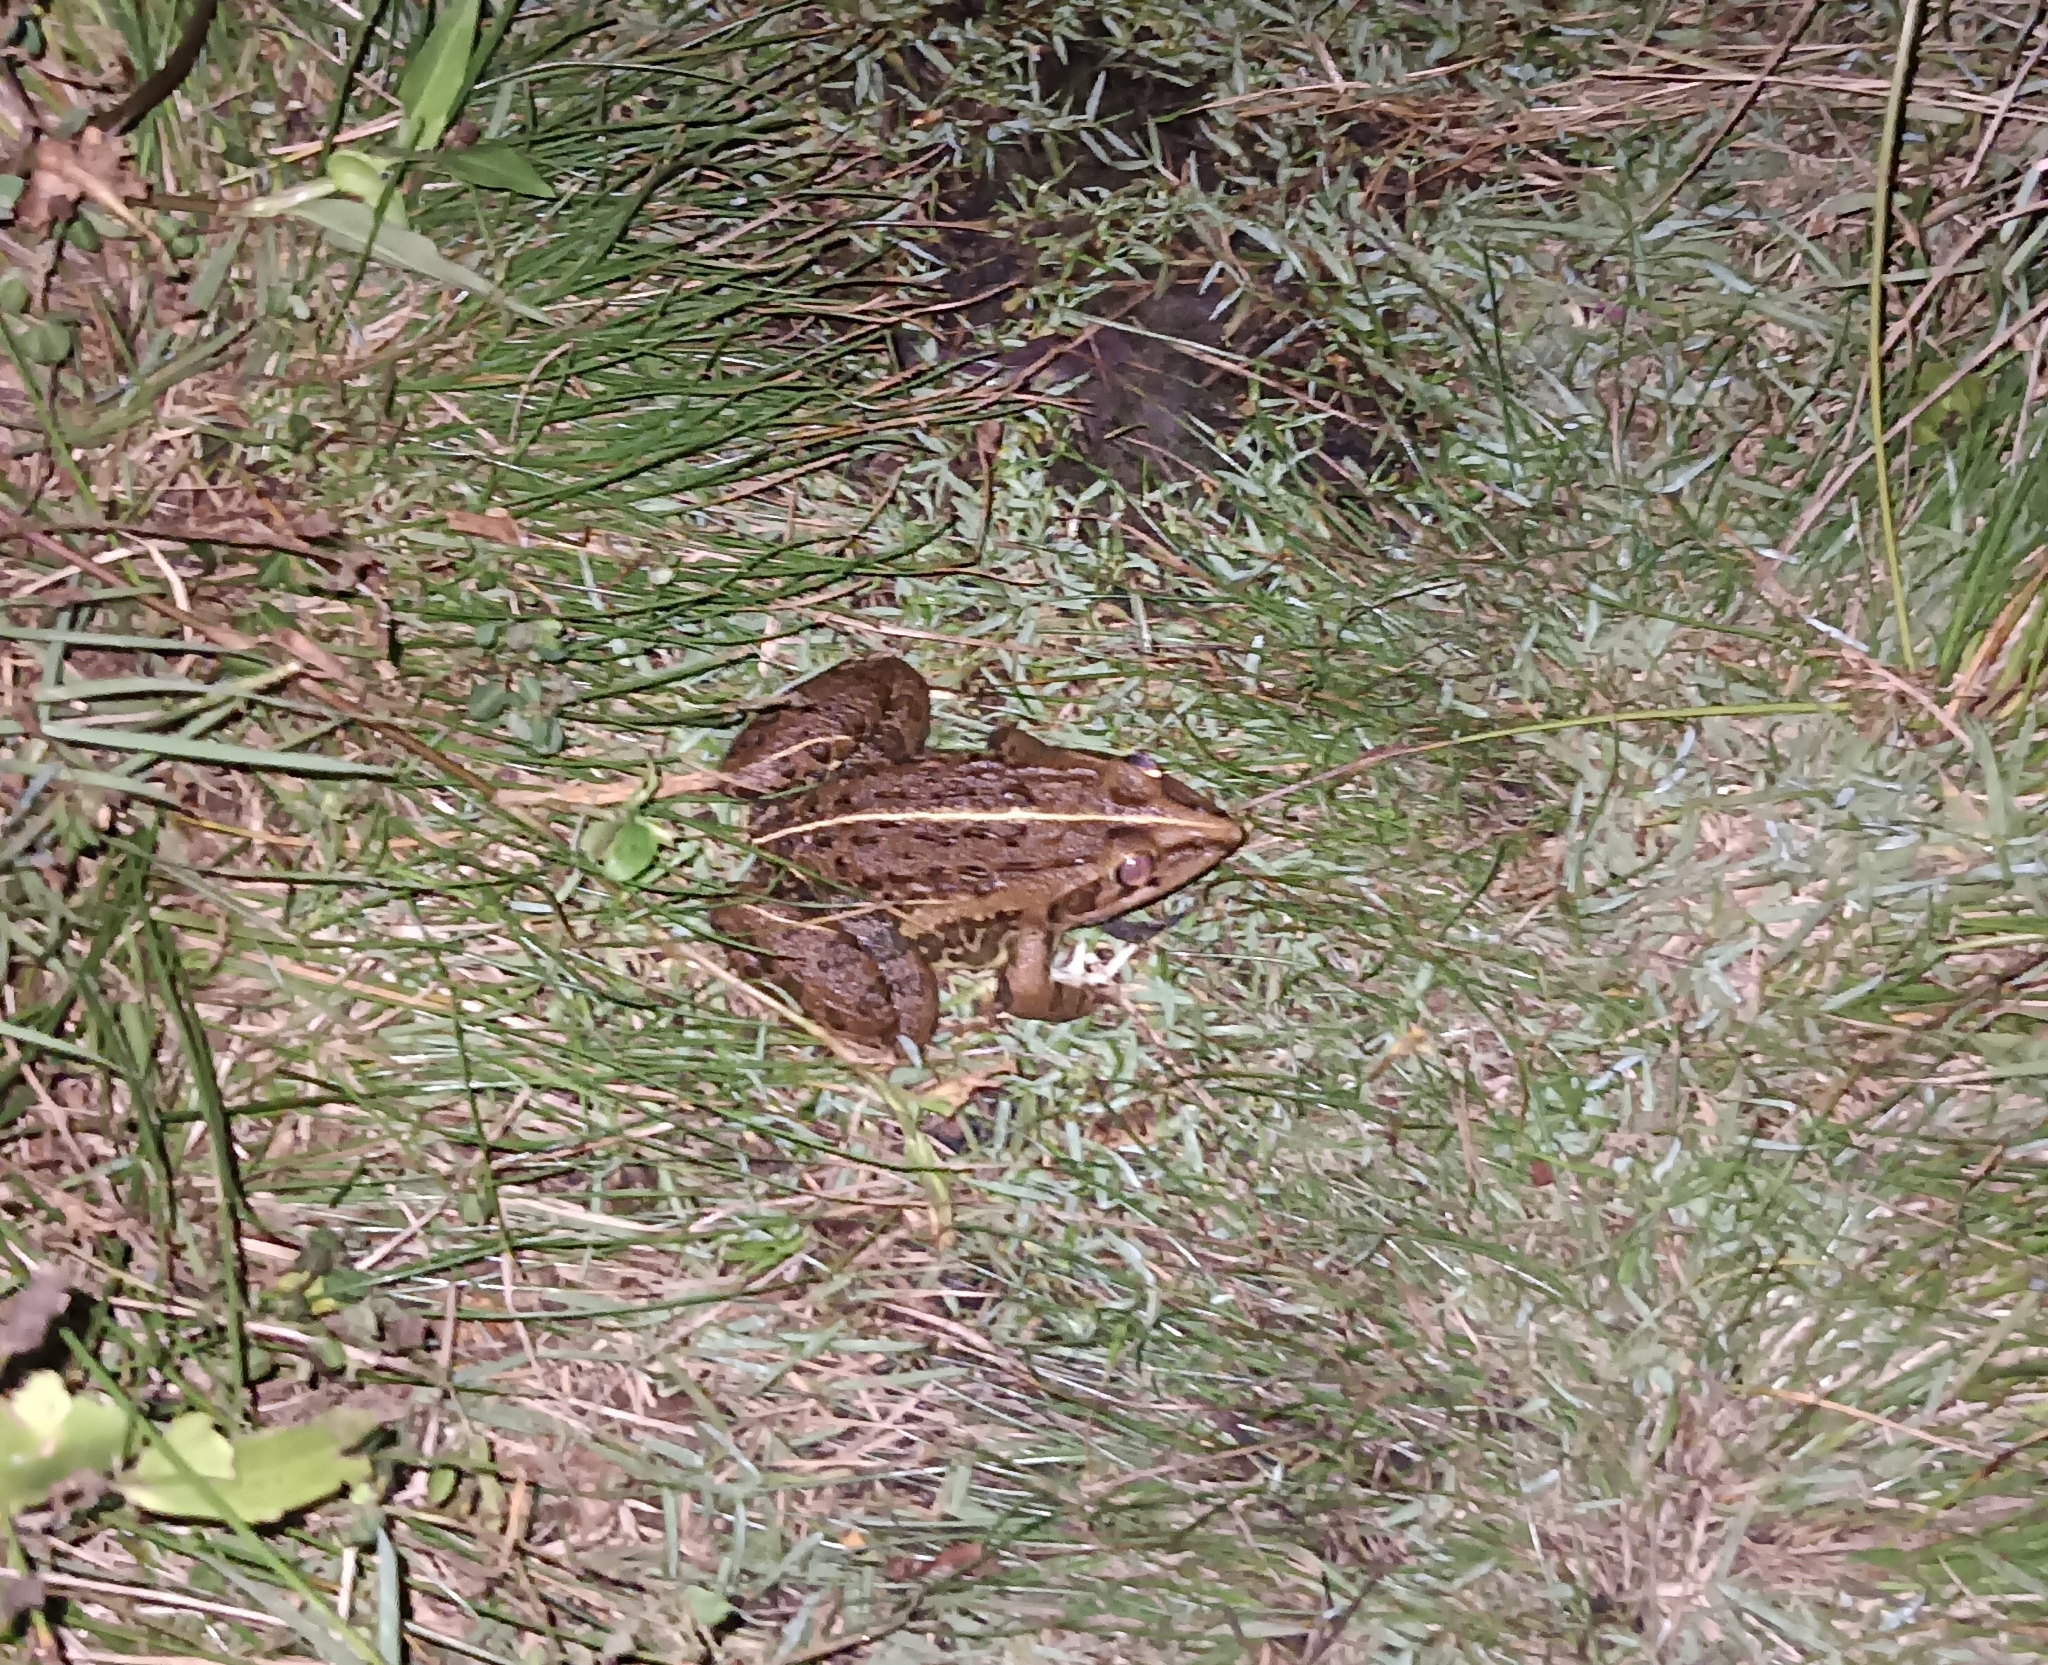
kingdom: Animalia
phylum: Chordata
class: Amphibia
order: Anura
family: Dicroglossidae
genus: Hoplobatrachus
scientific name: Hoplobatrachus tigerinus
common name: Indian bullfrog
